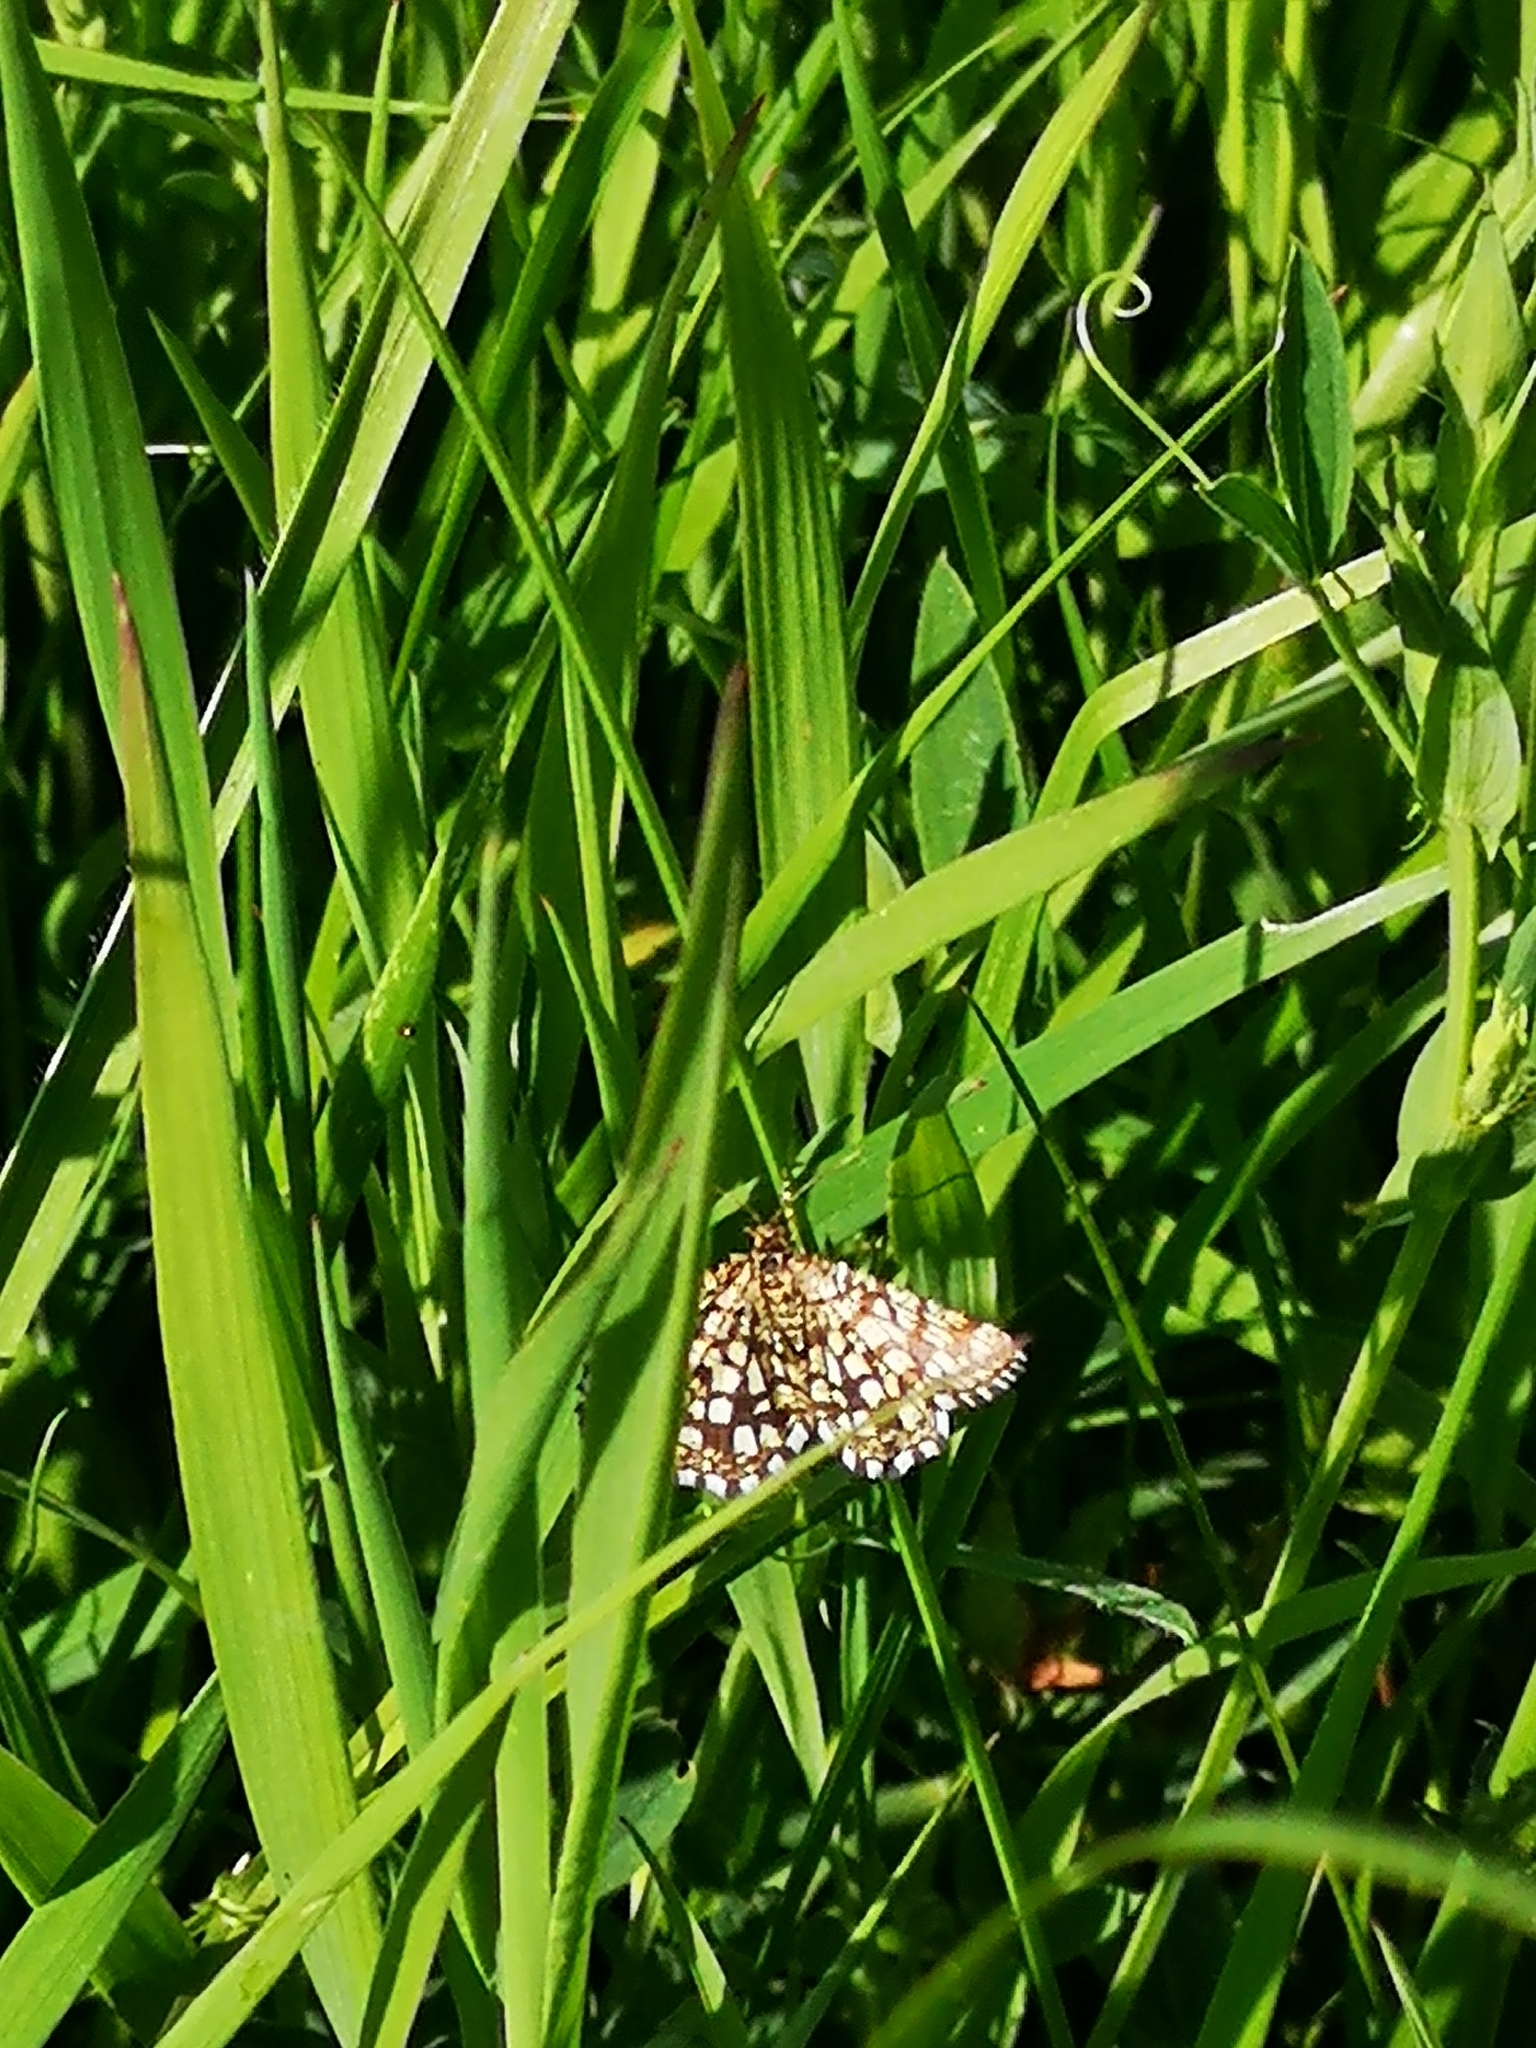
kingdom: Animalia
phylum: Arthropoda
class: Insecta
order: Lepidoptera
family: Geometridae
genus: Chiasmia
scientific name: Chiasmia clathrata
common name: Latticed heath
